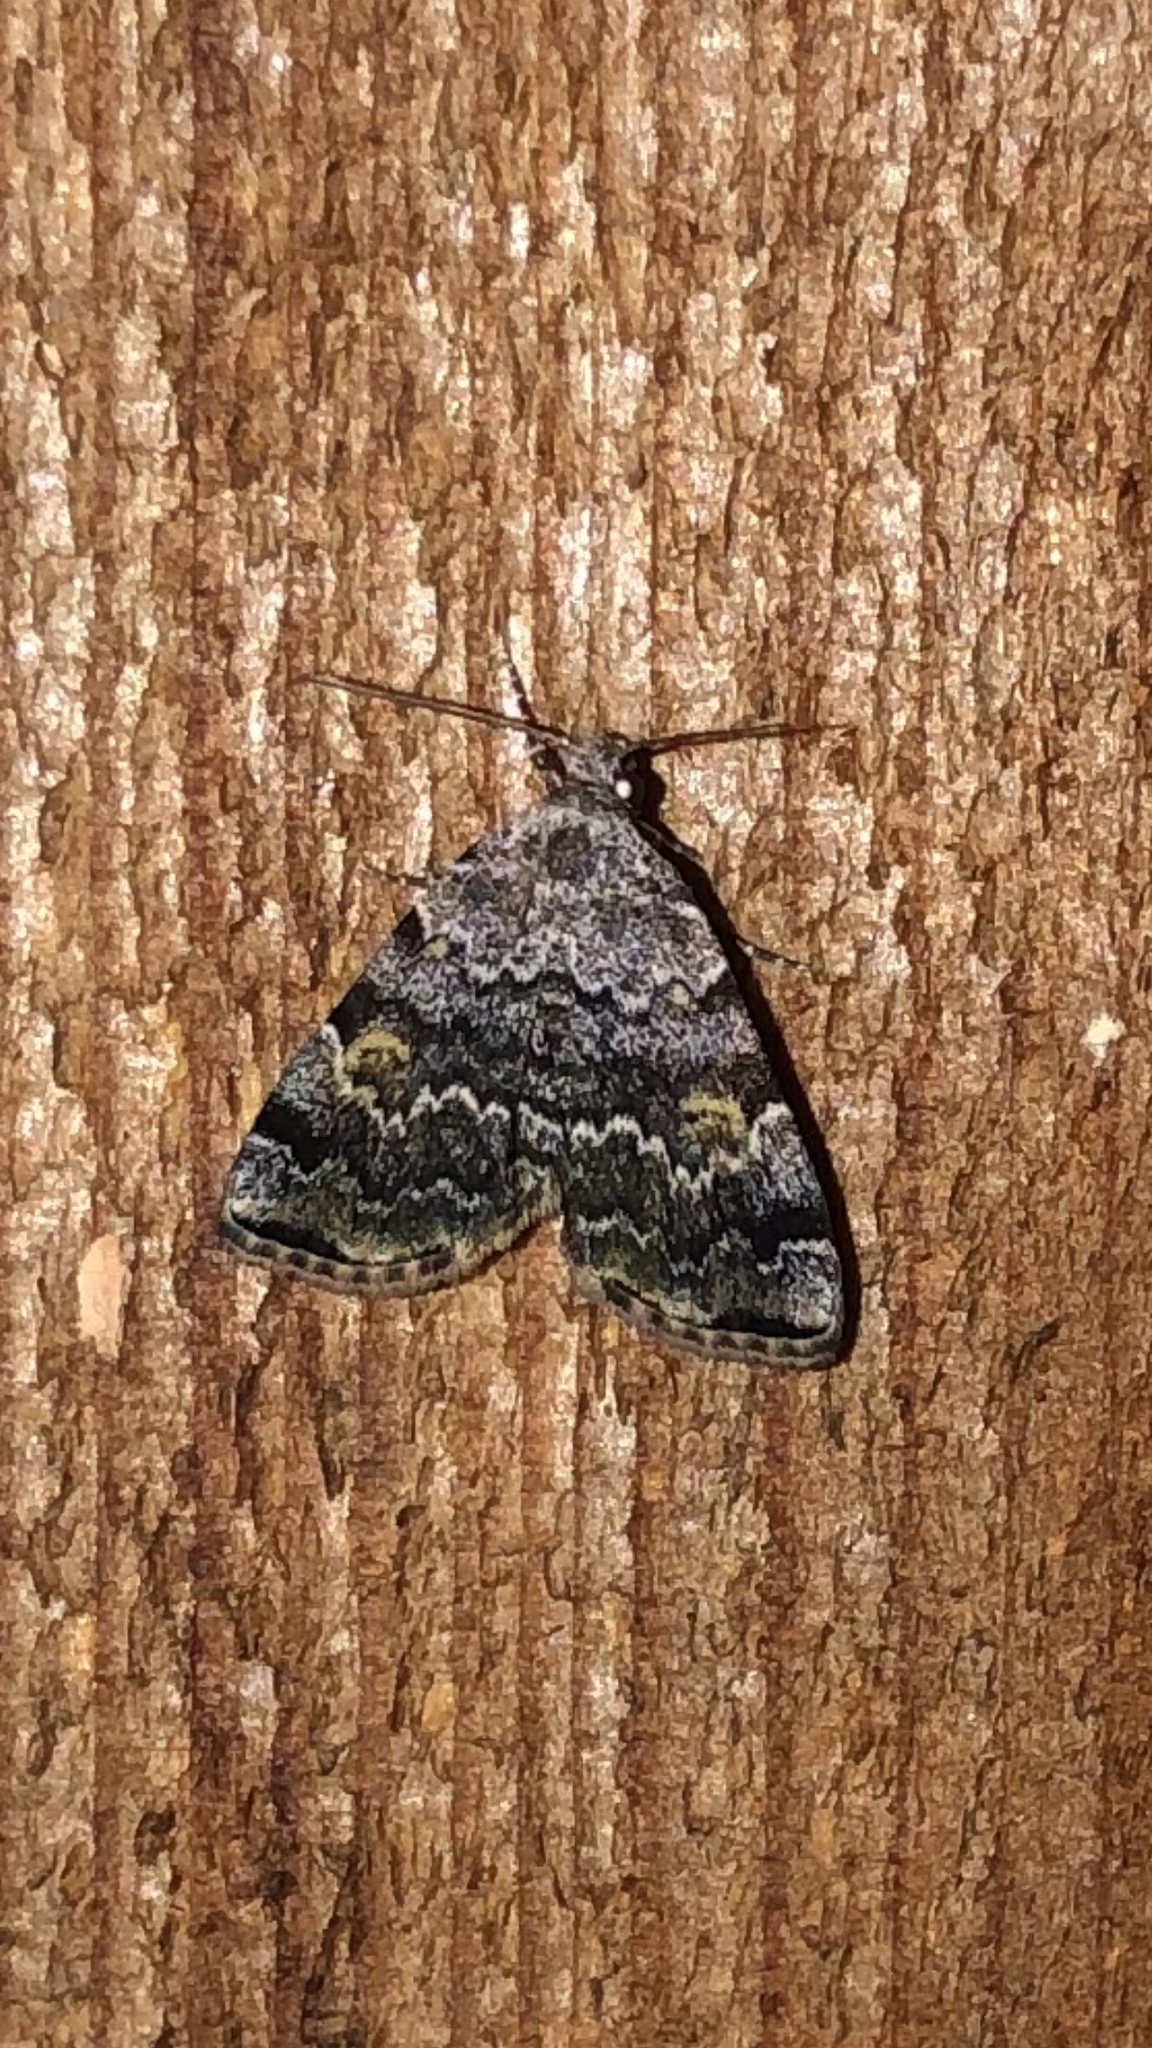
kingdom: Animalia
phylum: Arthropoda
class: Insecta
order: Lepidoptera
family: Erebidae
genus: Idia
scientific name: Idia americalis
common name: American idia moth
